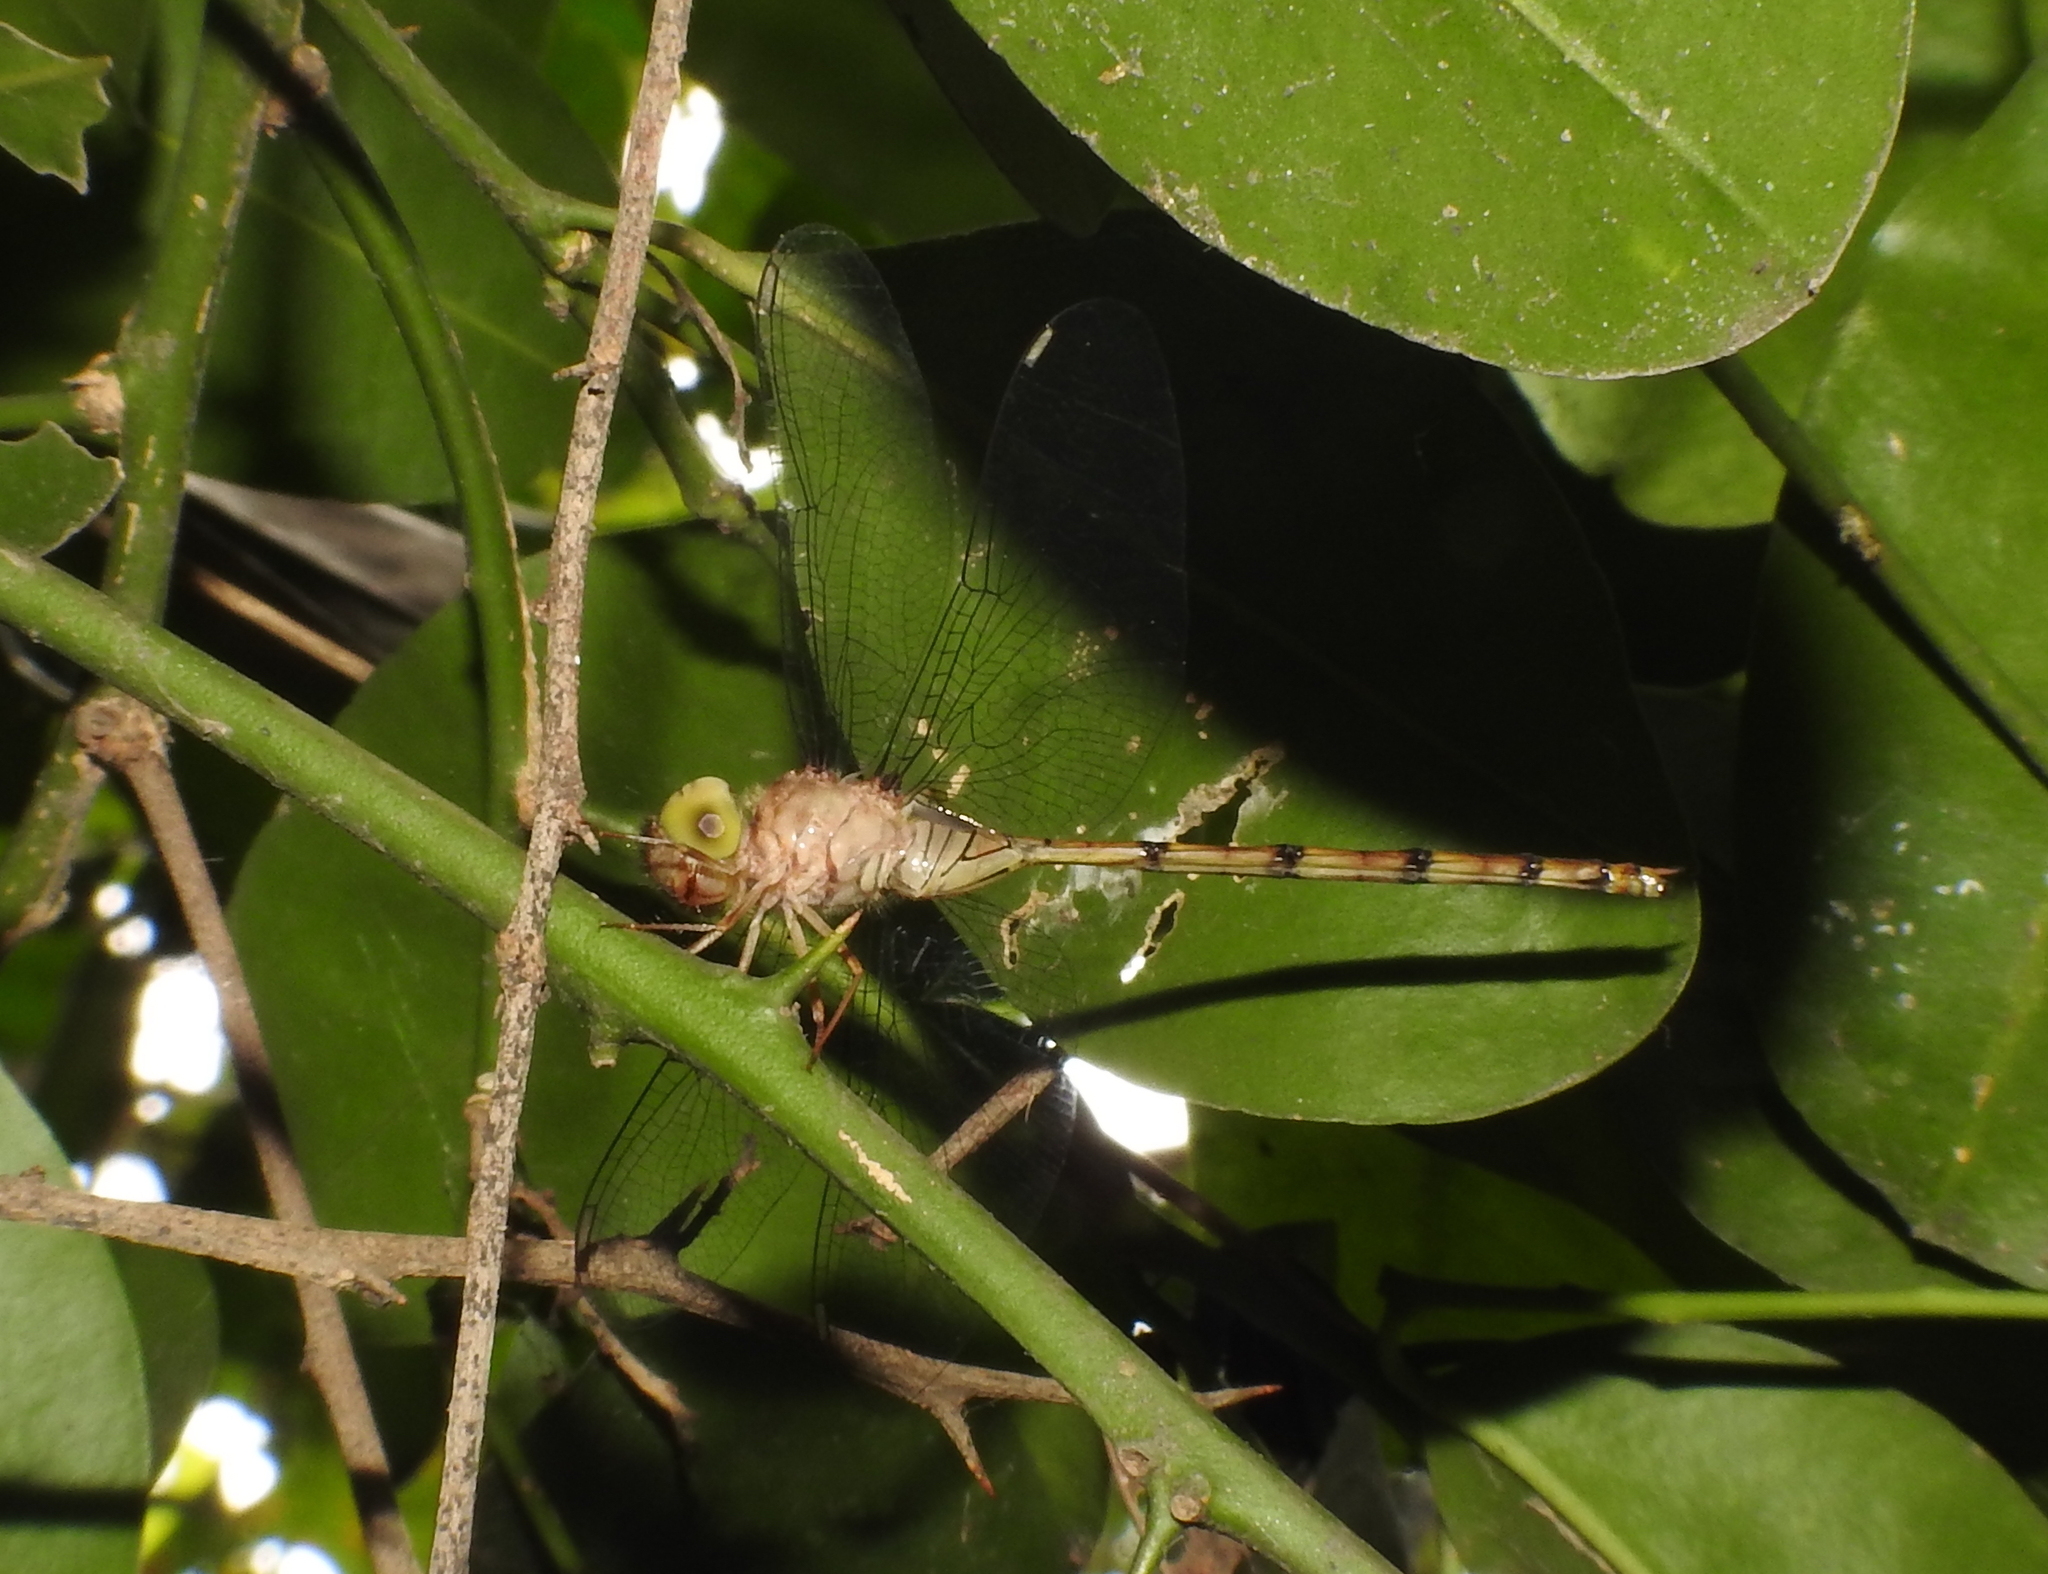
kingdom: Animalia
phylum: Arthropoda
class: Insecta
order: Odonata
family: Libellulidae
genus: Zyxomma
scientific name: Zyxomma petiolatum
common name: Dingy dusk-darter
